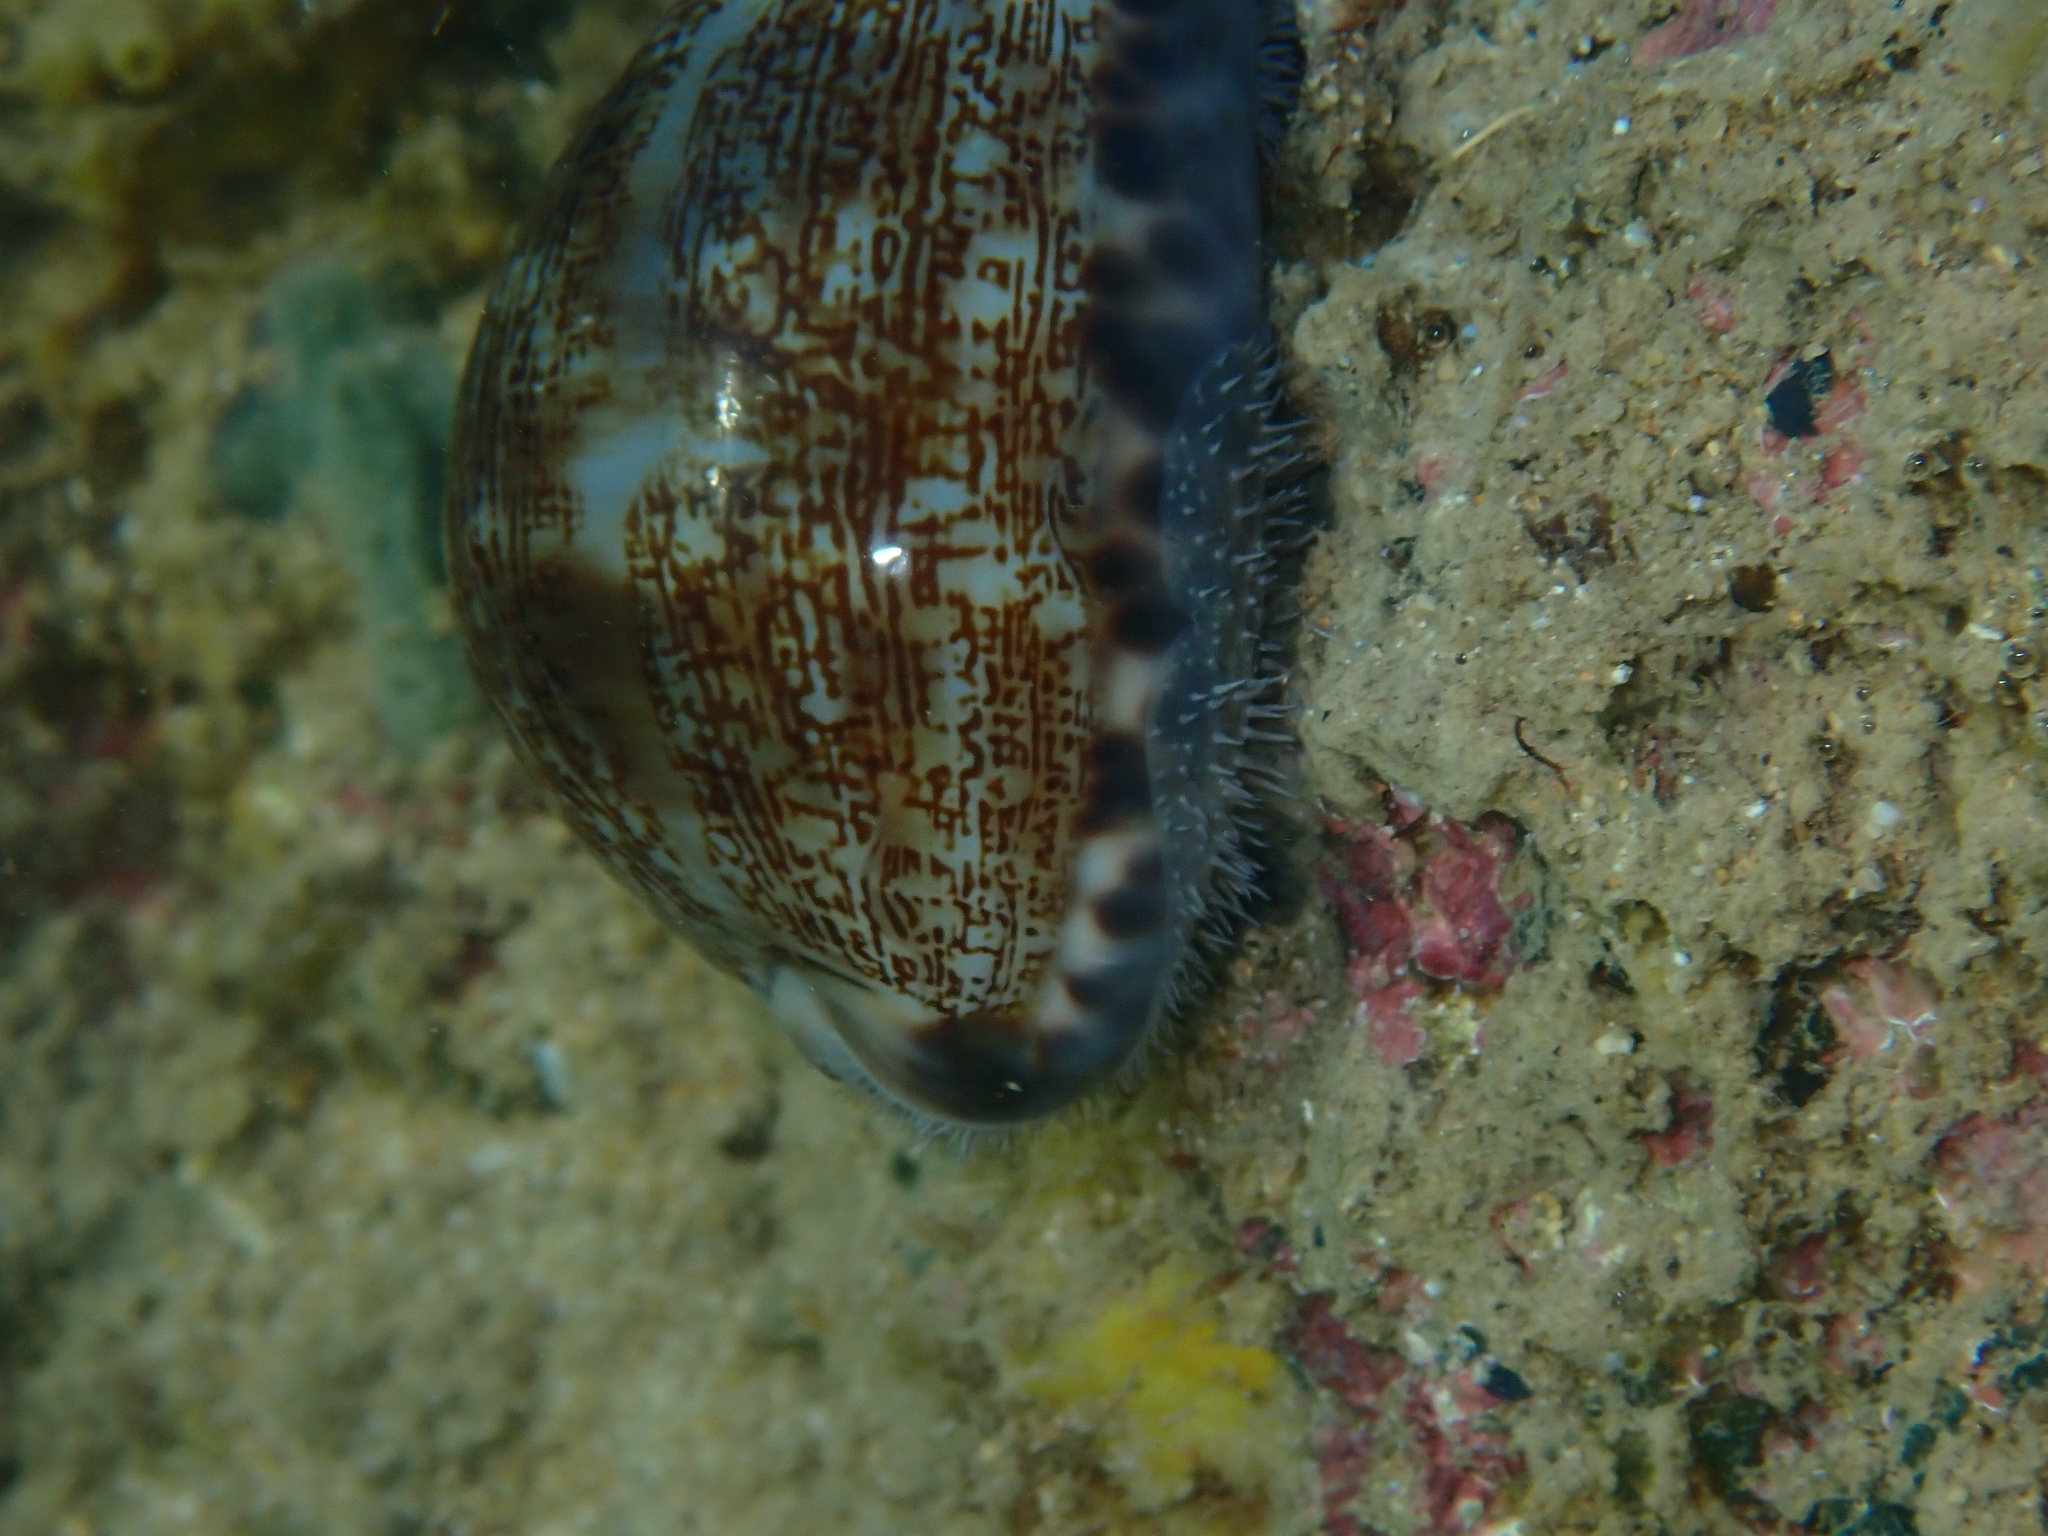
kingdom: Animalia
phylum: Mollusca
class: Gastropoda
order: Littorinimorpha
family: Cypraeidae
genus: Mauritia
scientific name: Mauritia arabica
